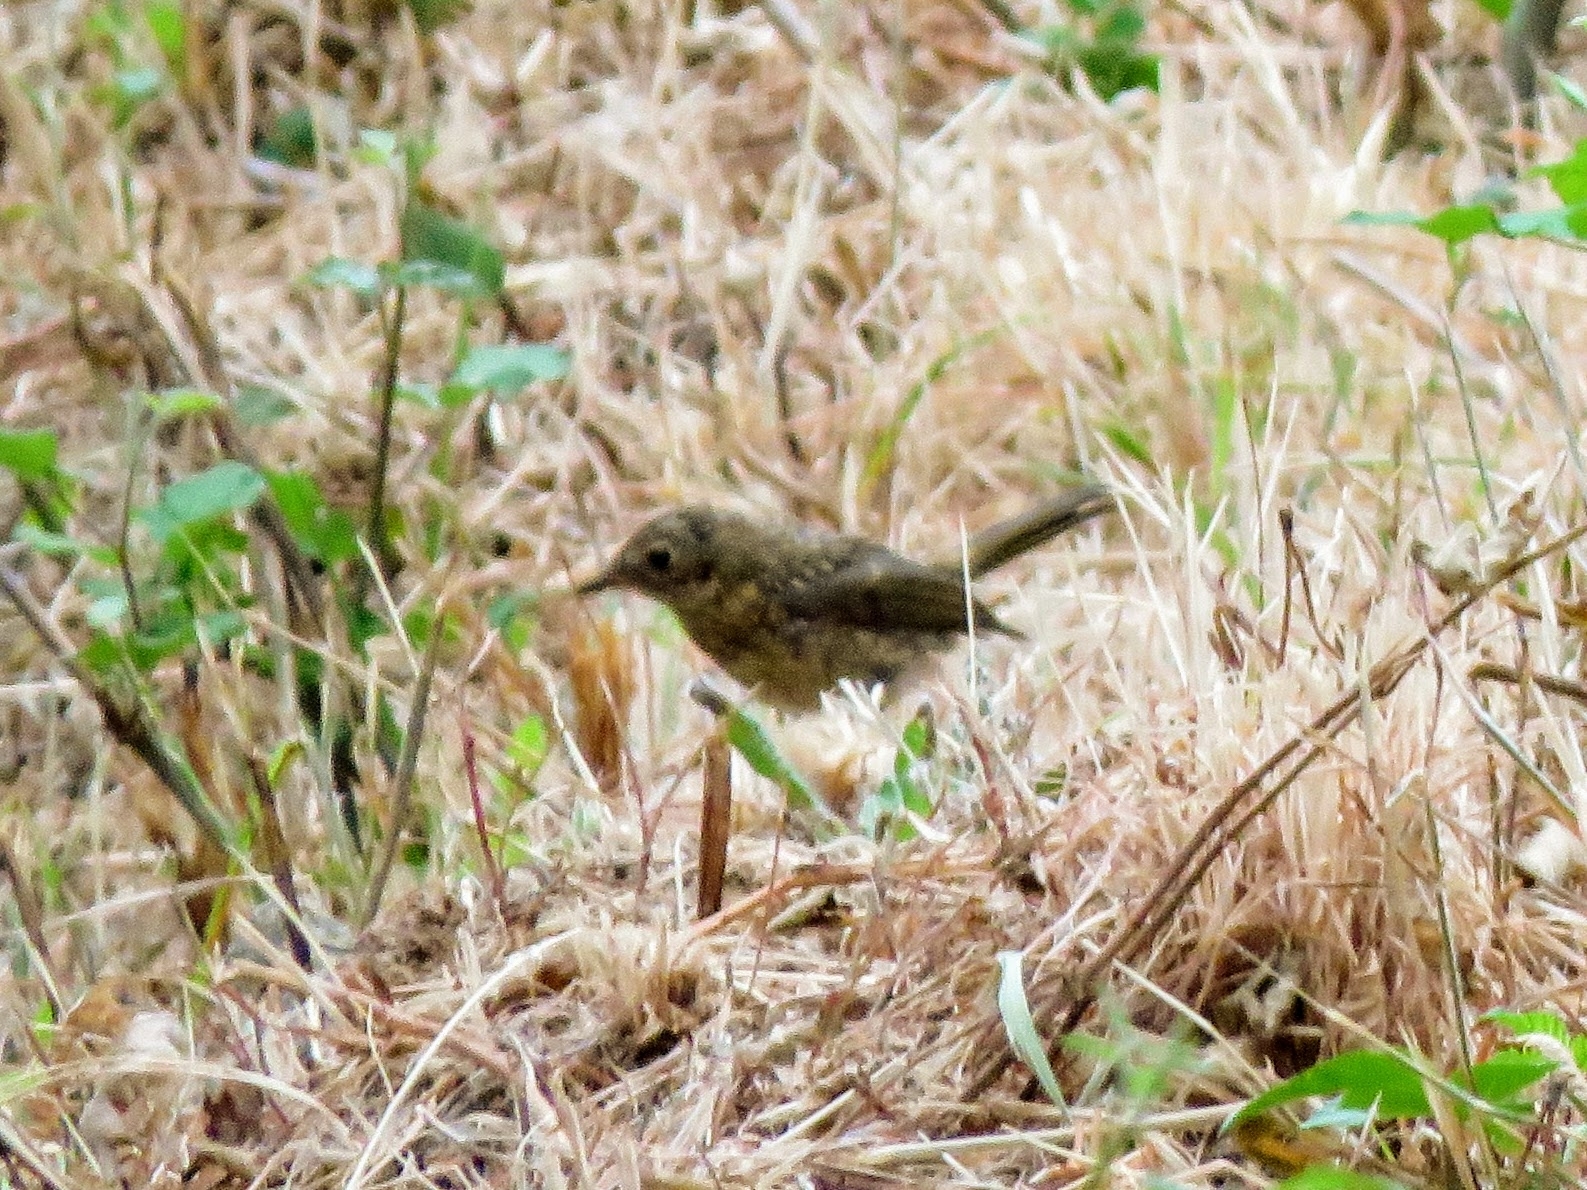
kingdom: Animalia
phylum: Chordata
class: Aves
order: Passeriformes
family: Muscicapidae
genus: Erithacus
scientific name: Erithacus rubecula
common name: European robin
